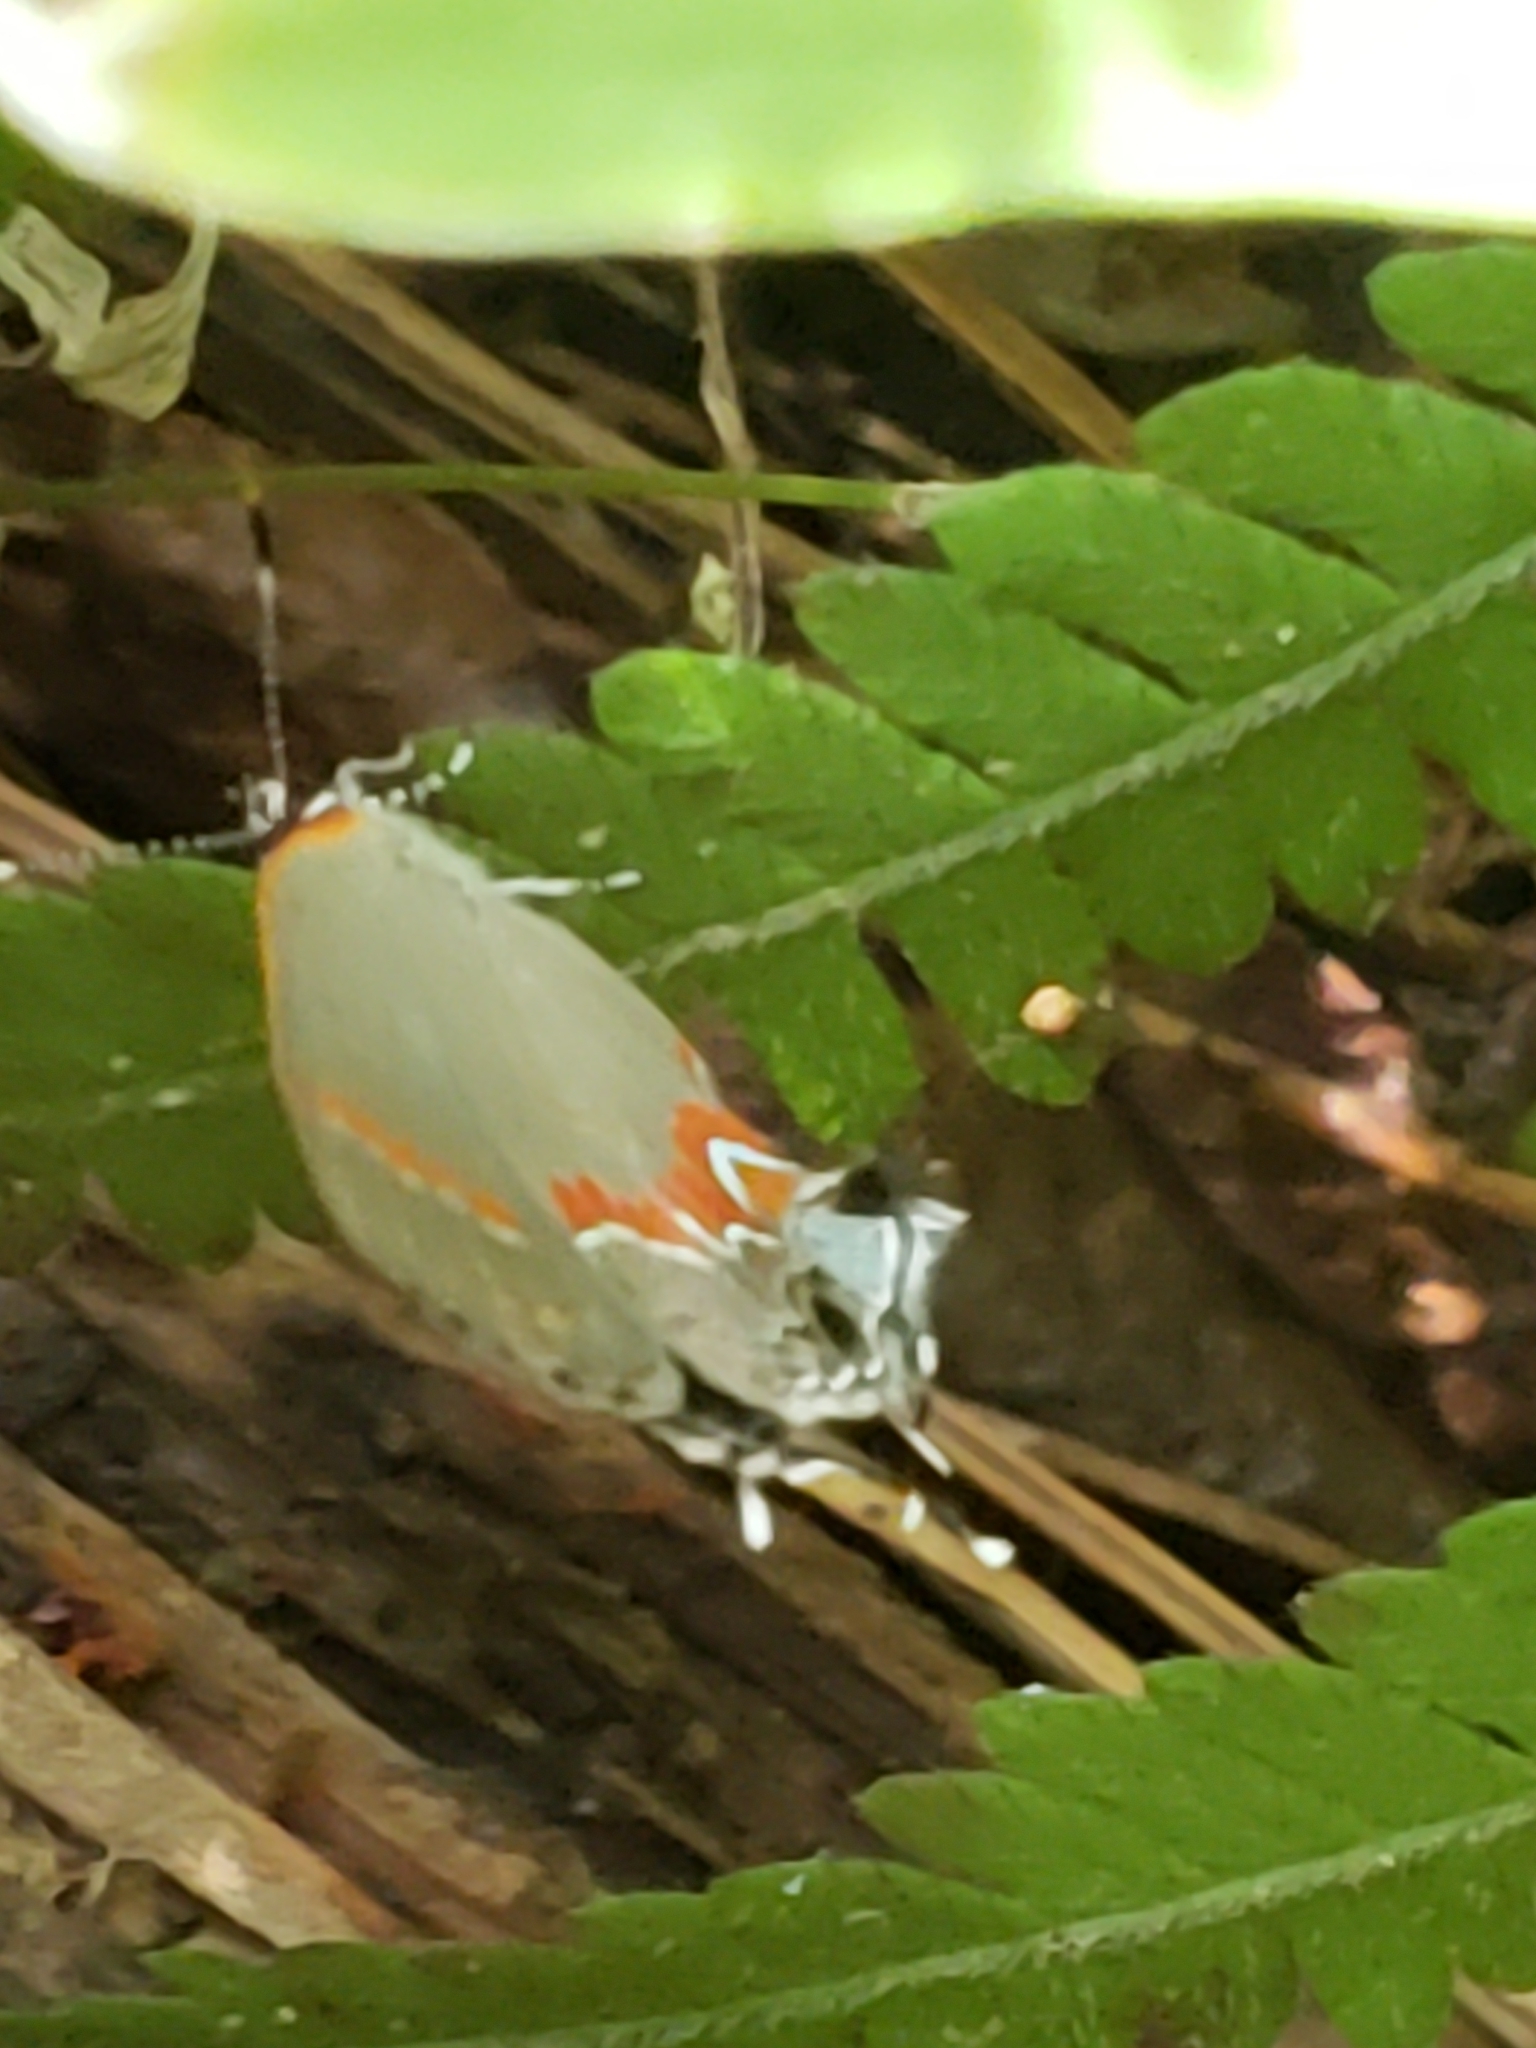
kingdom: Animalia
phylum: Arthropoda
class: Insecta
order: Lepidoptera
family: Lycaenidae
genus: Calycopis
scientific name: Calycopis cecrops
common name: Red-banded hairstreak
